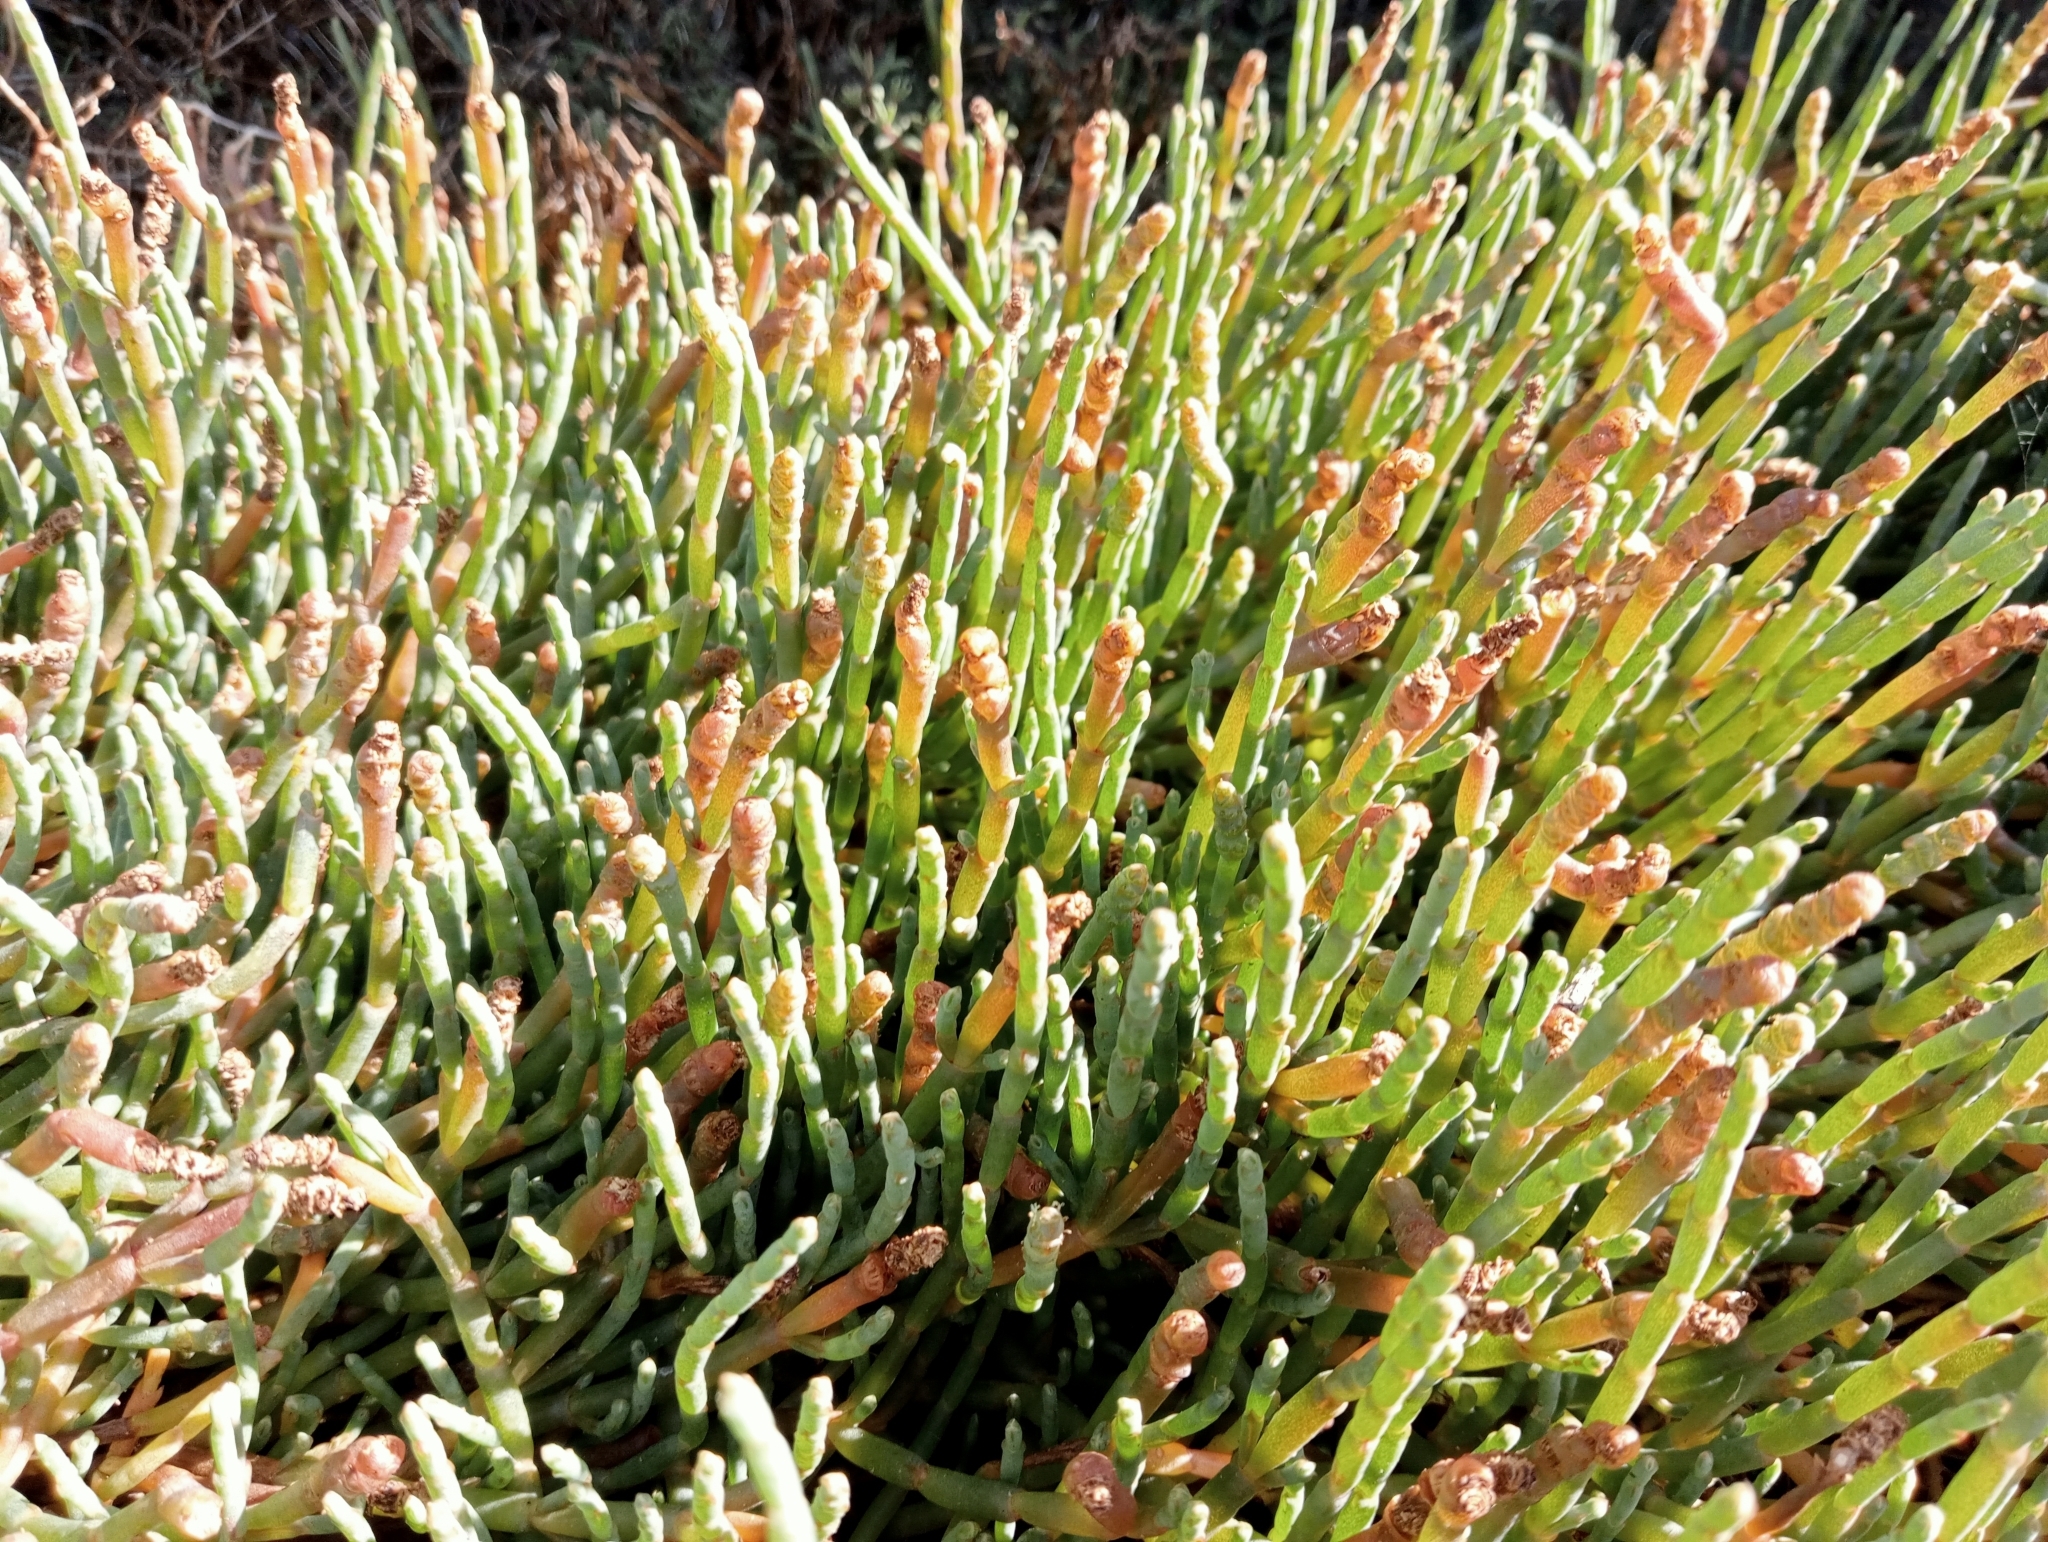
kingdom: Plantae
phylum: Tracheophyta
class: Magnoliopsida
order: Caryophyllales
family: Amaranthaceae
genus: Salicornia
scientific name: Salicornia quinqueflora
